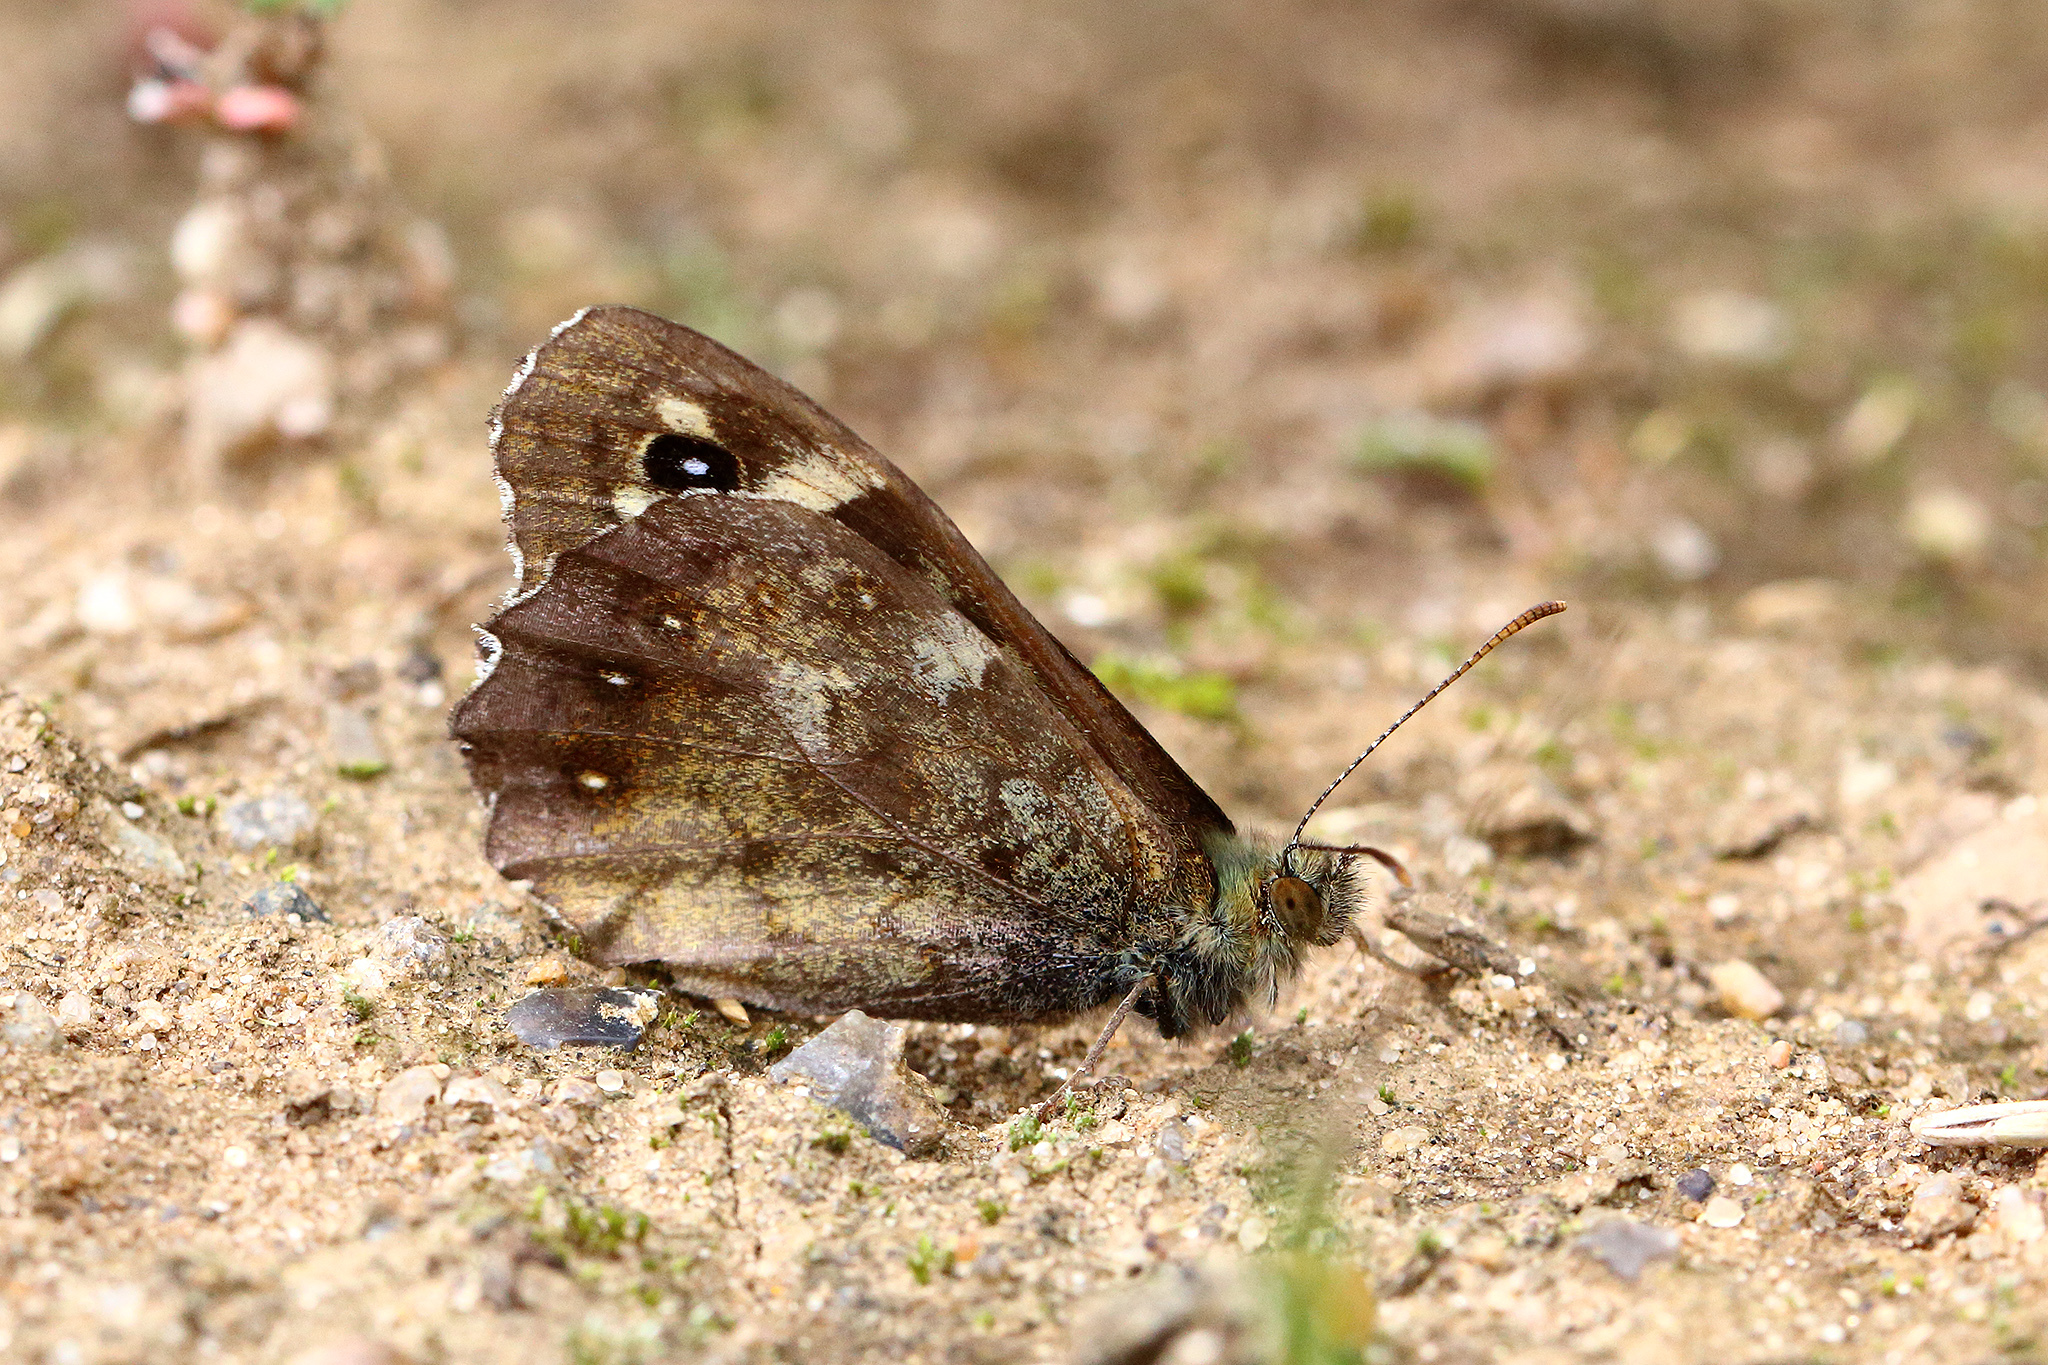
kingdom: Animalia
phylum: Arthropoda
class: Insecta
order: Lepidoptera
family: Nymphalidae
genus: Pararge
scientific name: Pararge aegeria
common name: Speckled wood
